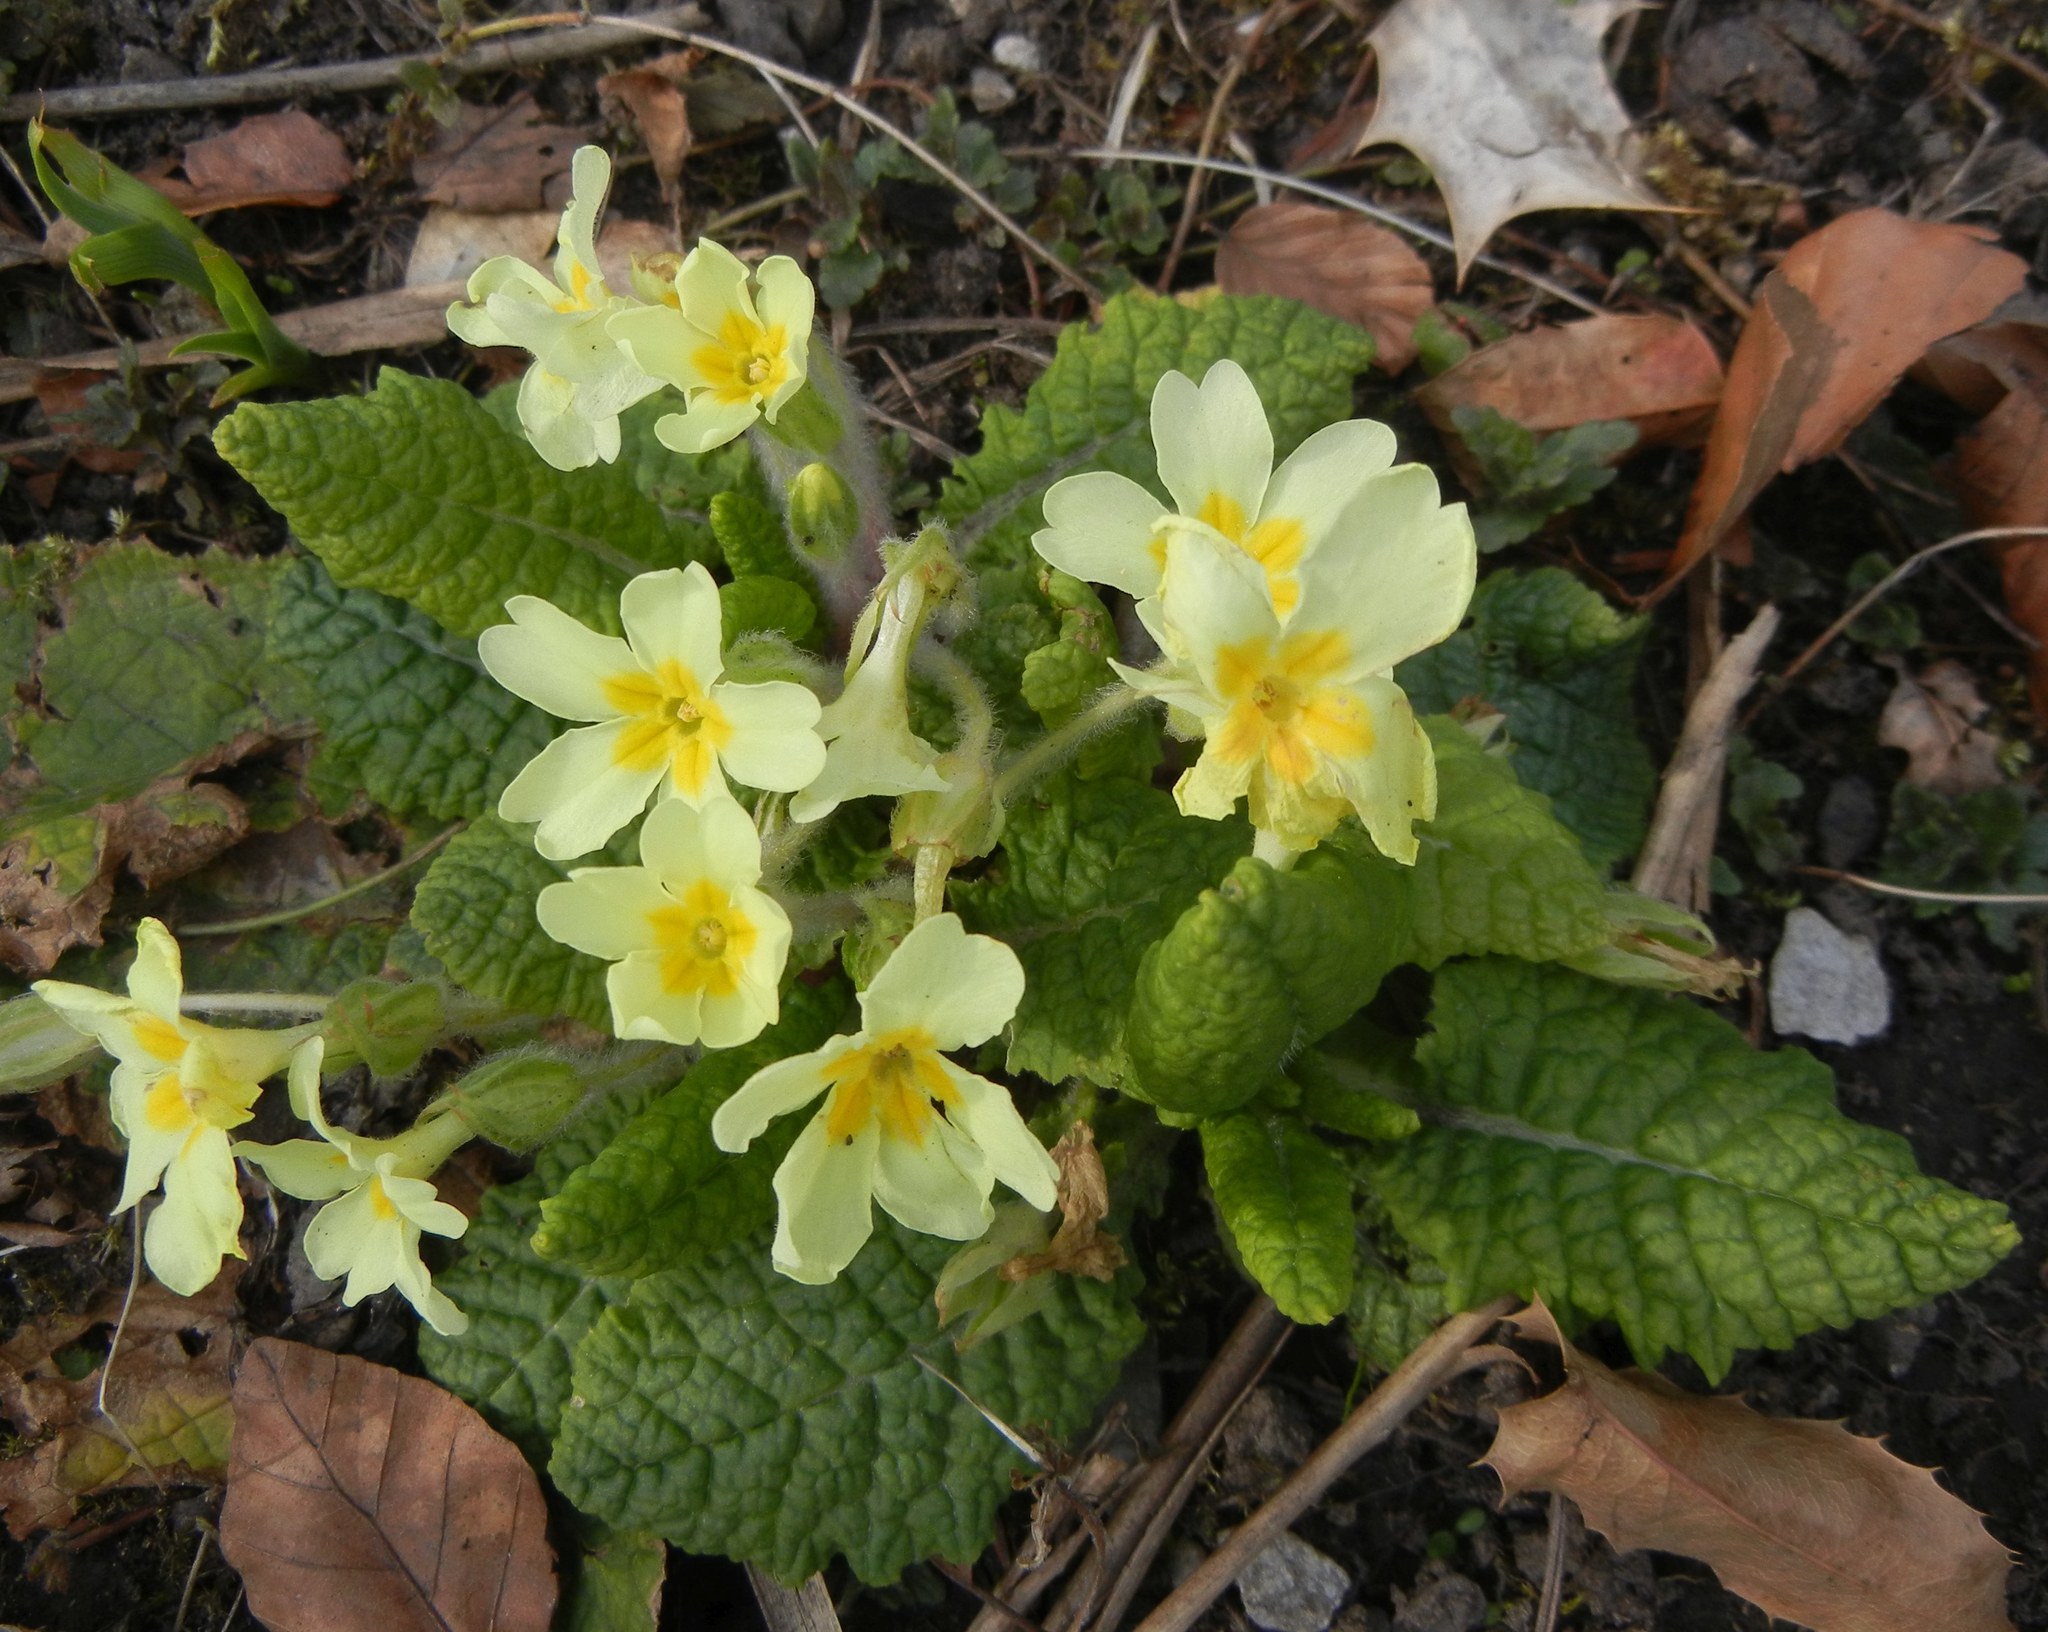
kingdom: Plantae
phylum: Tracheophyta
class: Magnoliopsida
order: Ericales
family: Primulaceae
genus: Primula
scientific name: Primula vulgaris
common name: Primrose
